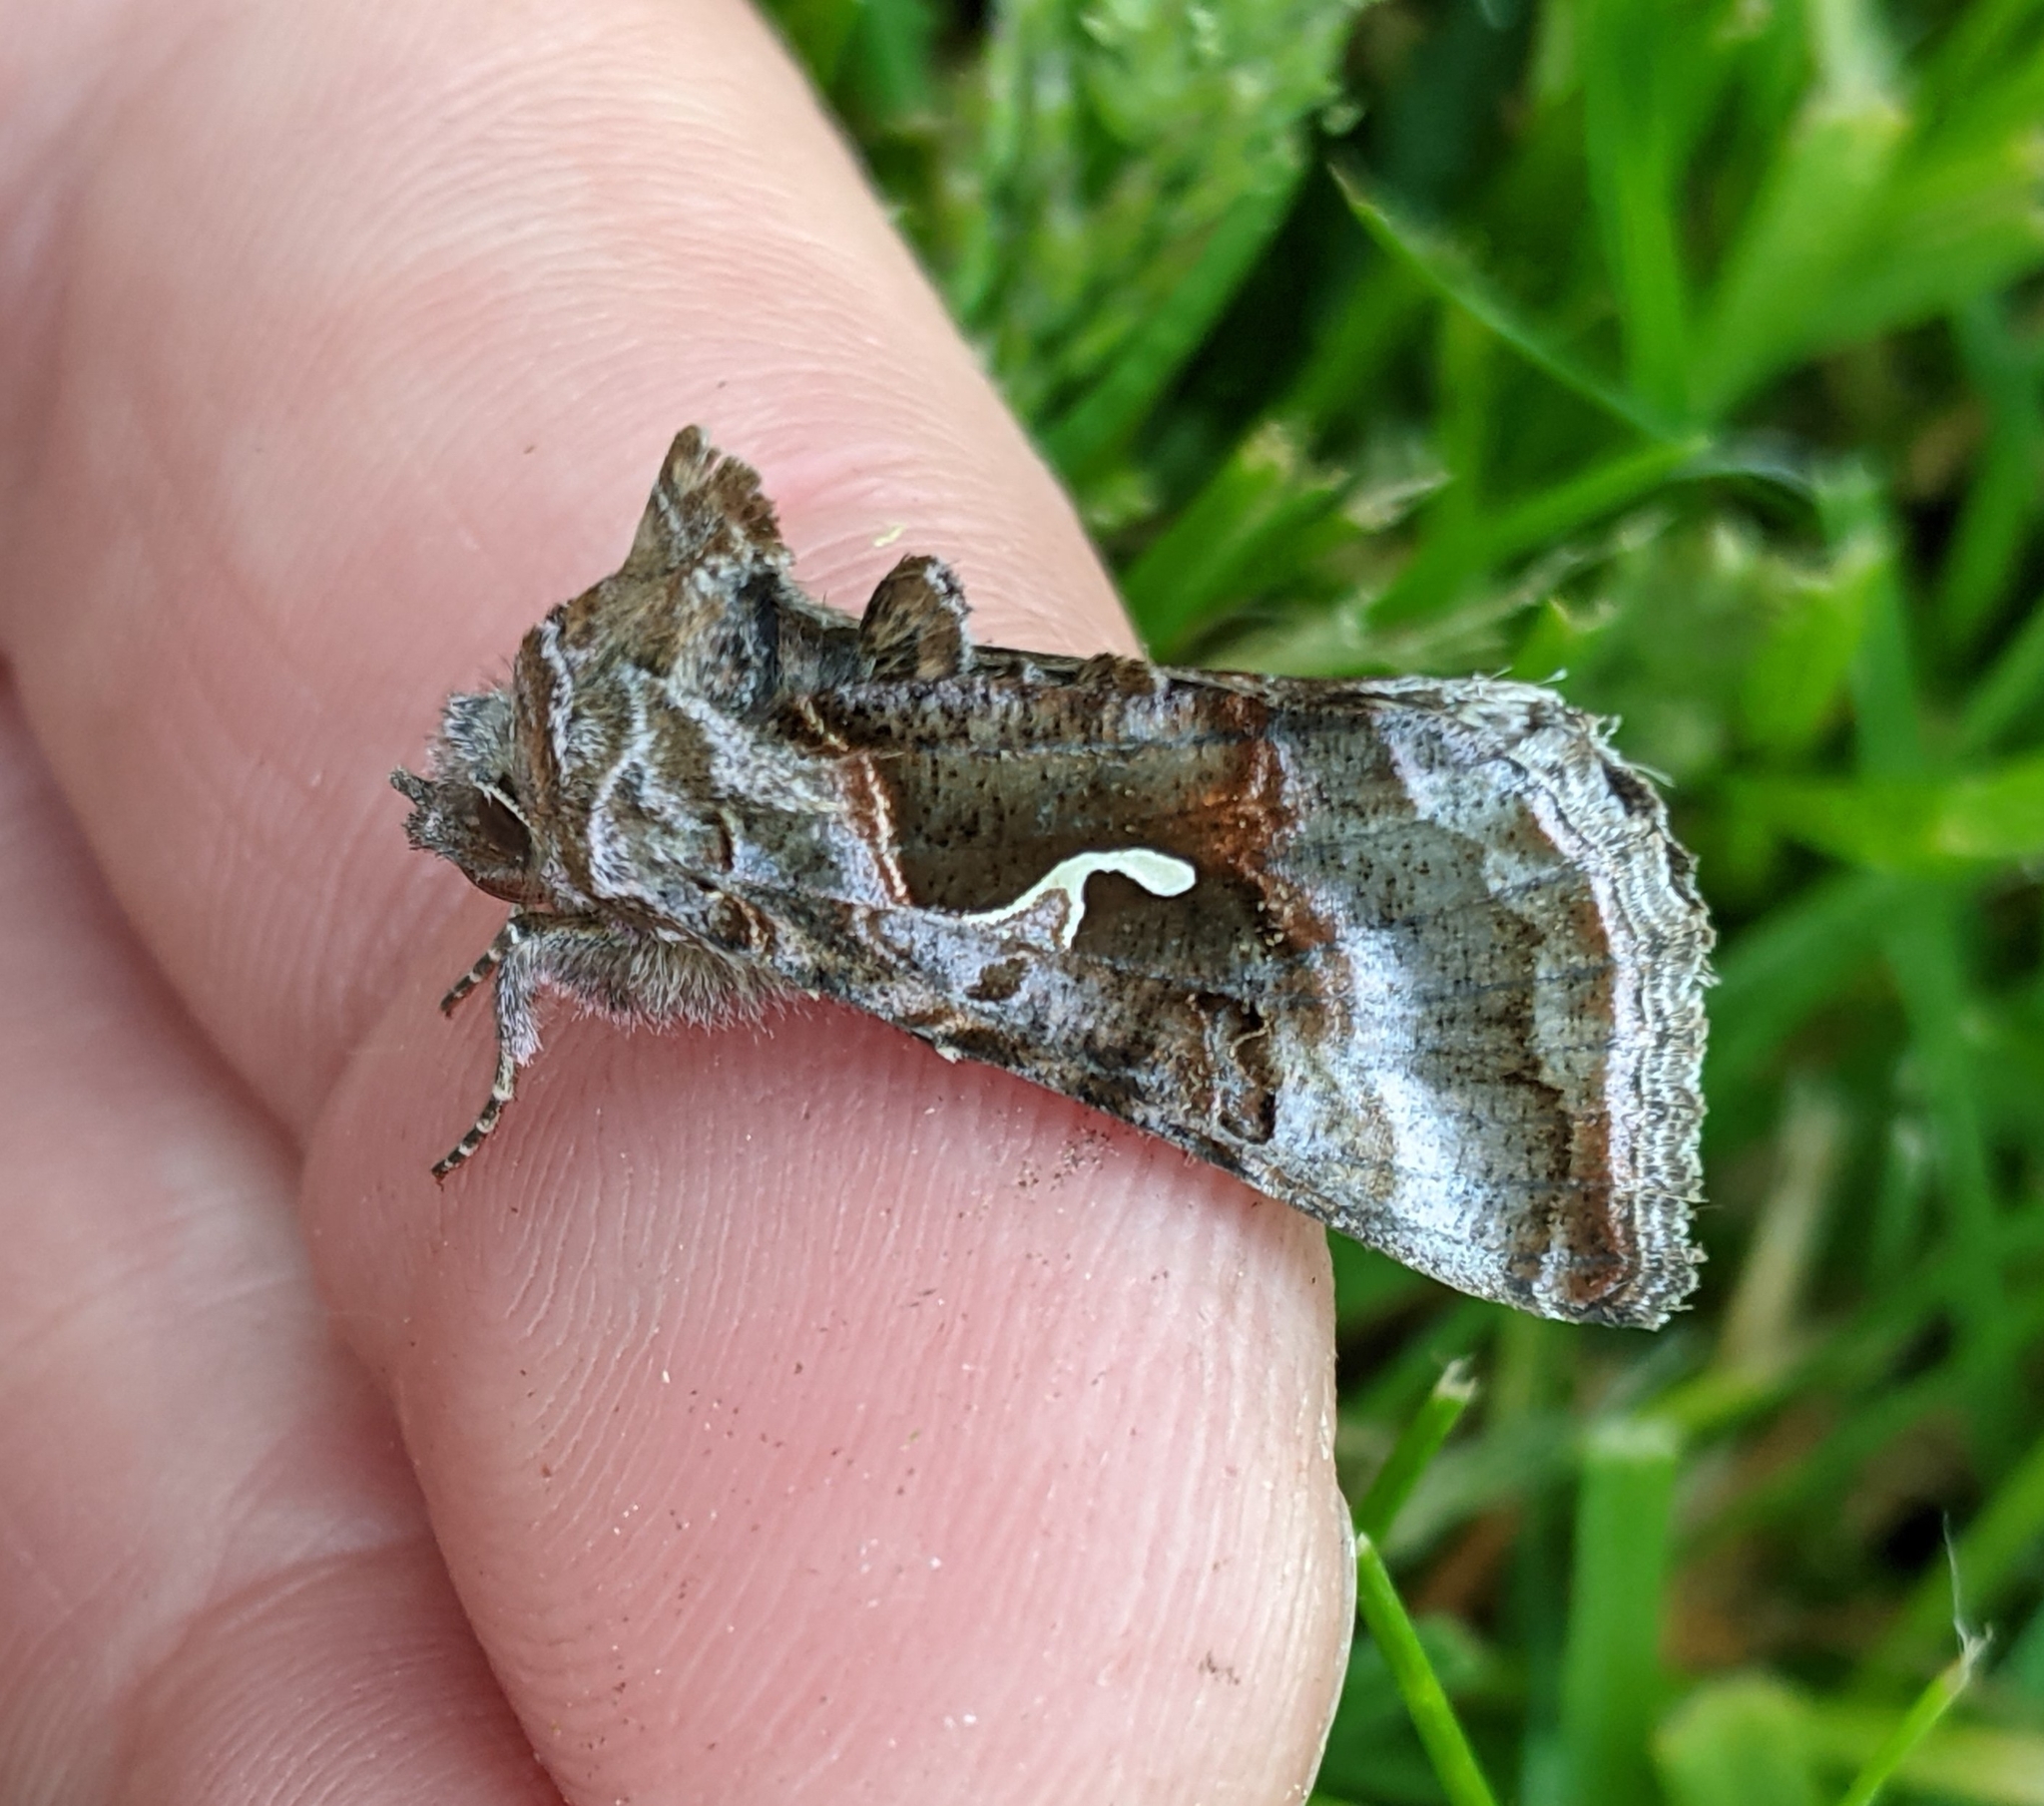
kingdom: Animalia
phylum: Arthropoda
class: Insecta
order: Lepidoptera
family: Noctuidae
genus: Autographa
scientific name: Autographa pseudogamma
